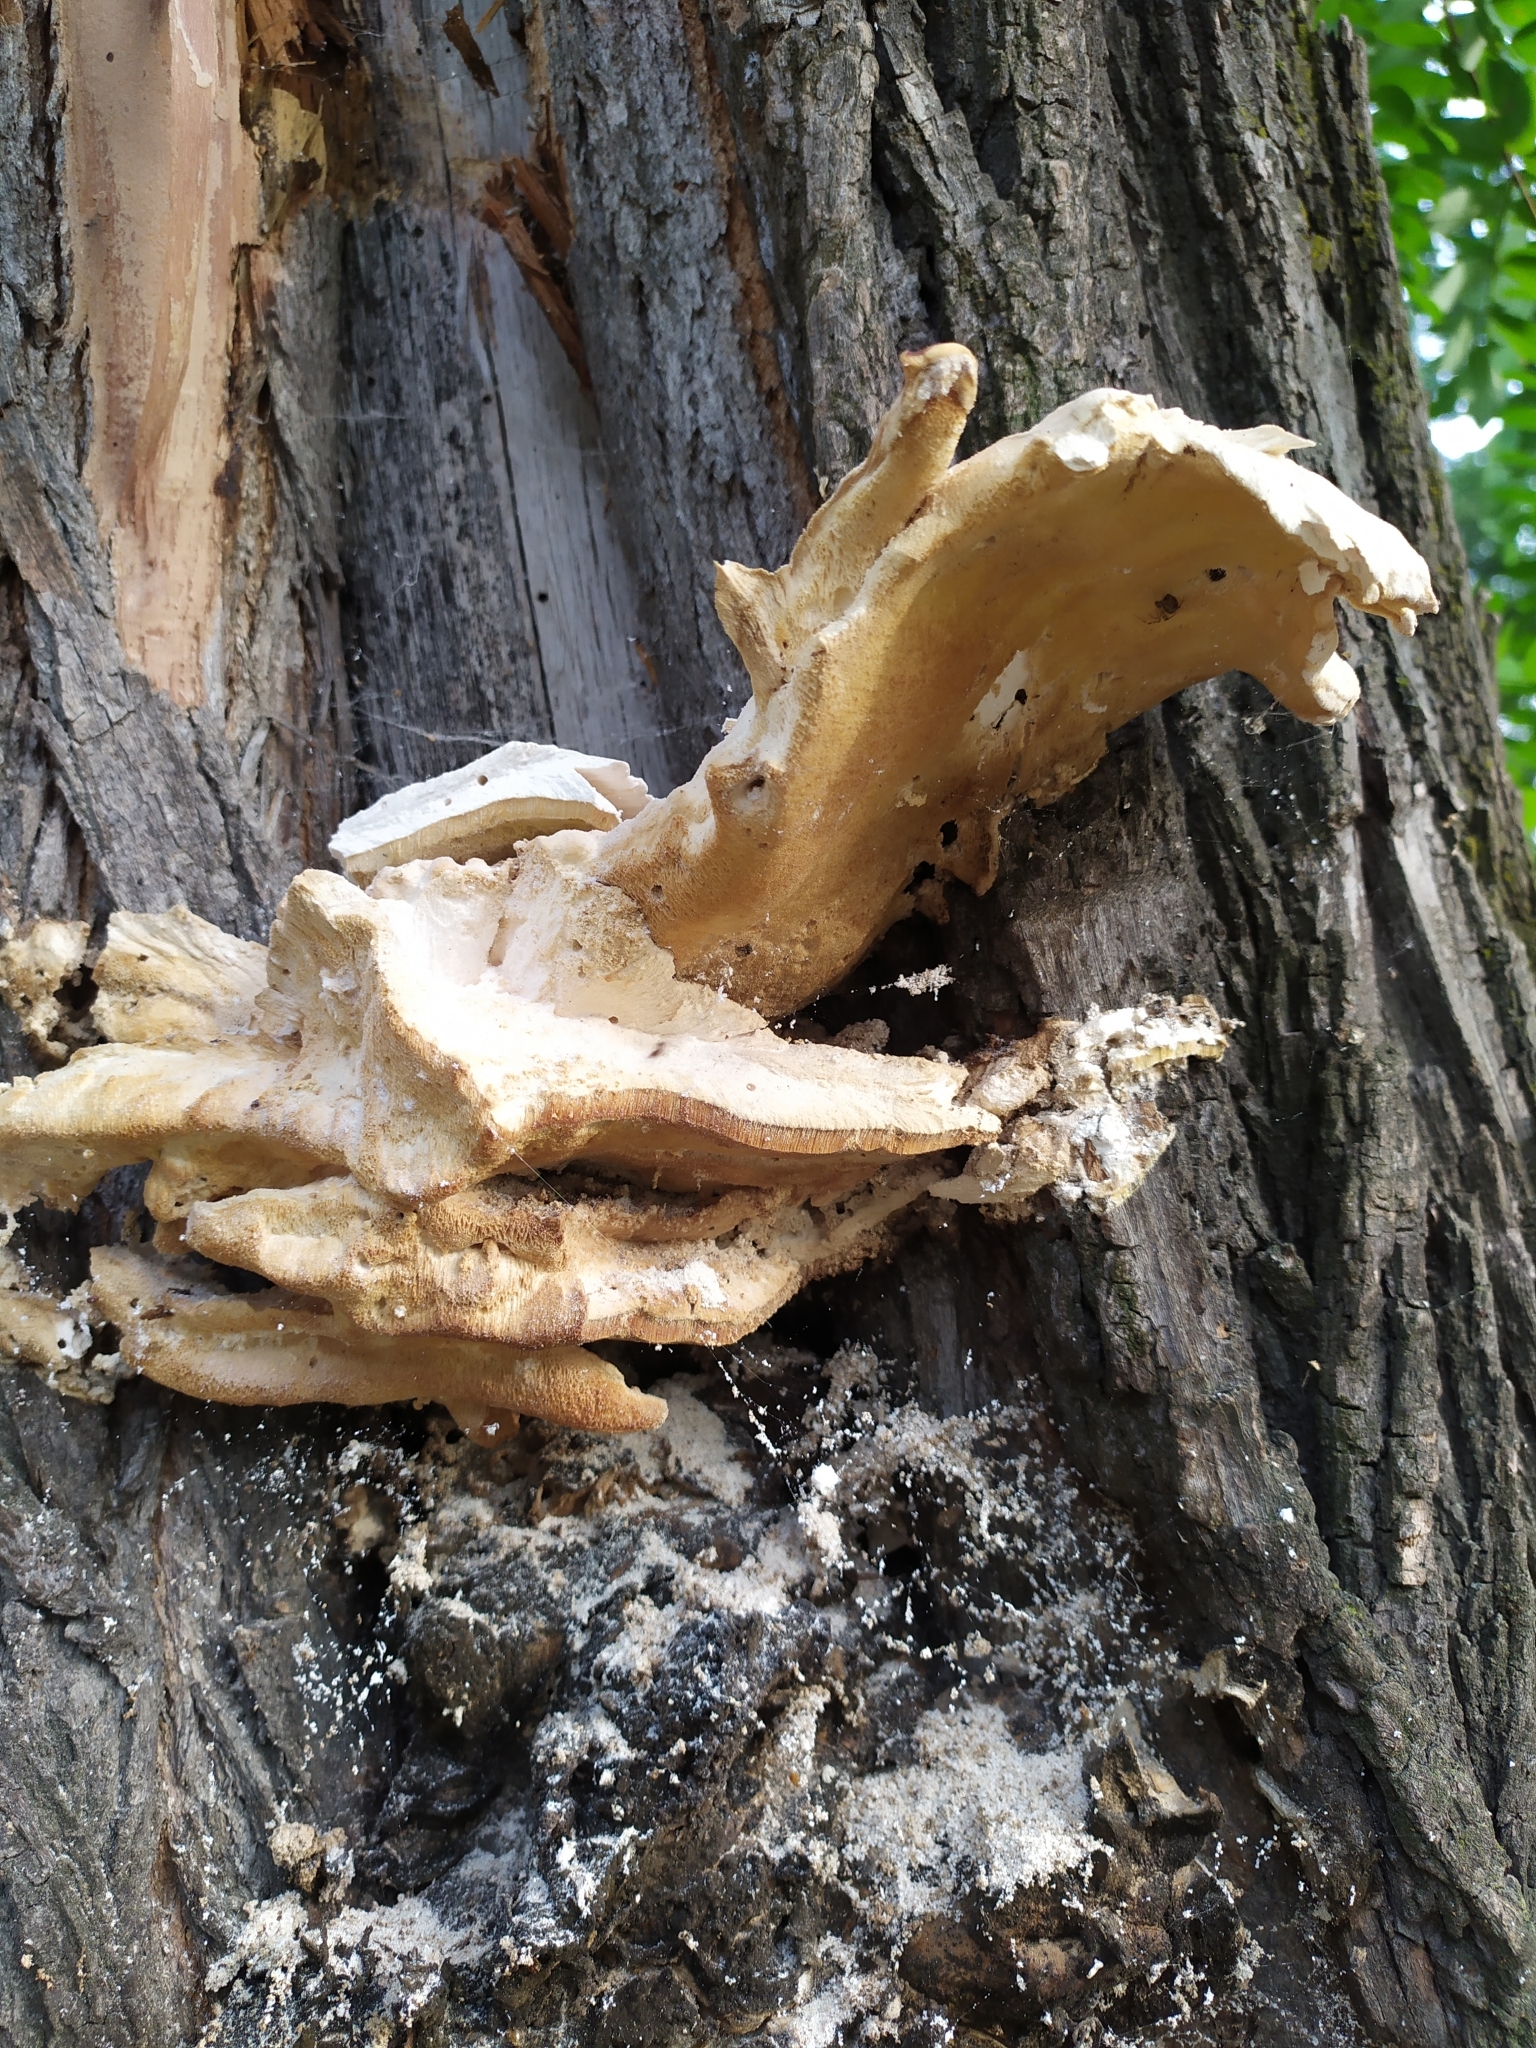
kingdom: Fungi
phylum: Basidiomycota
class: Agaricomycetes
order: Polyporales
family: Laetiporaceae
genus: Laetiporus
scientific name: Laetiporus sulphureus
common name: Chicken of the woods
